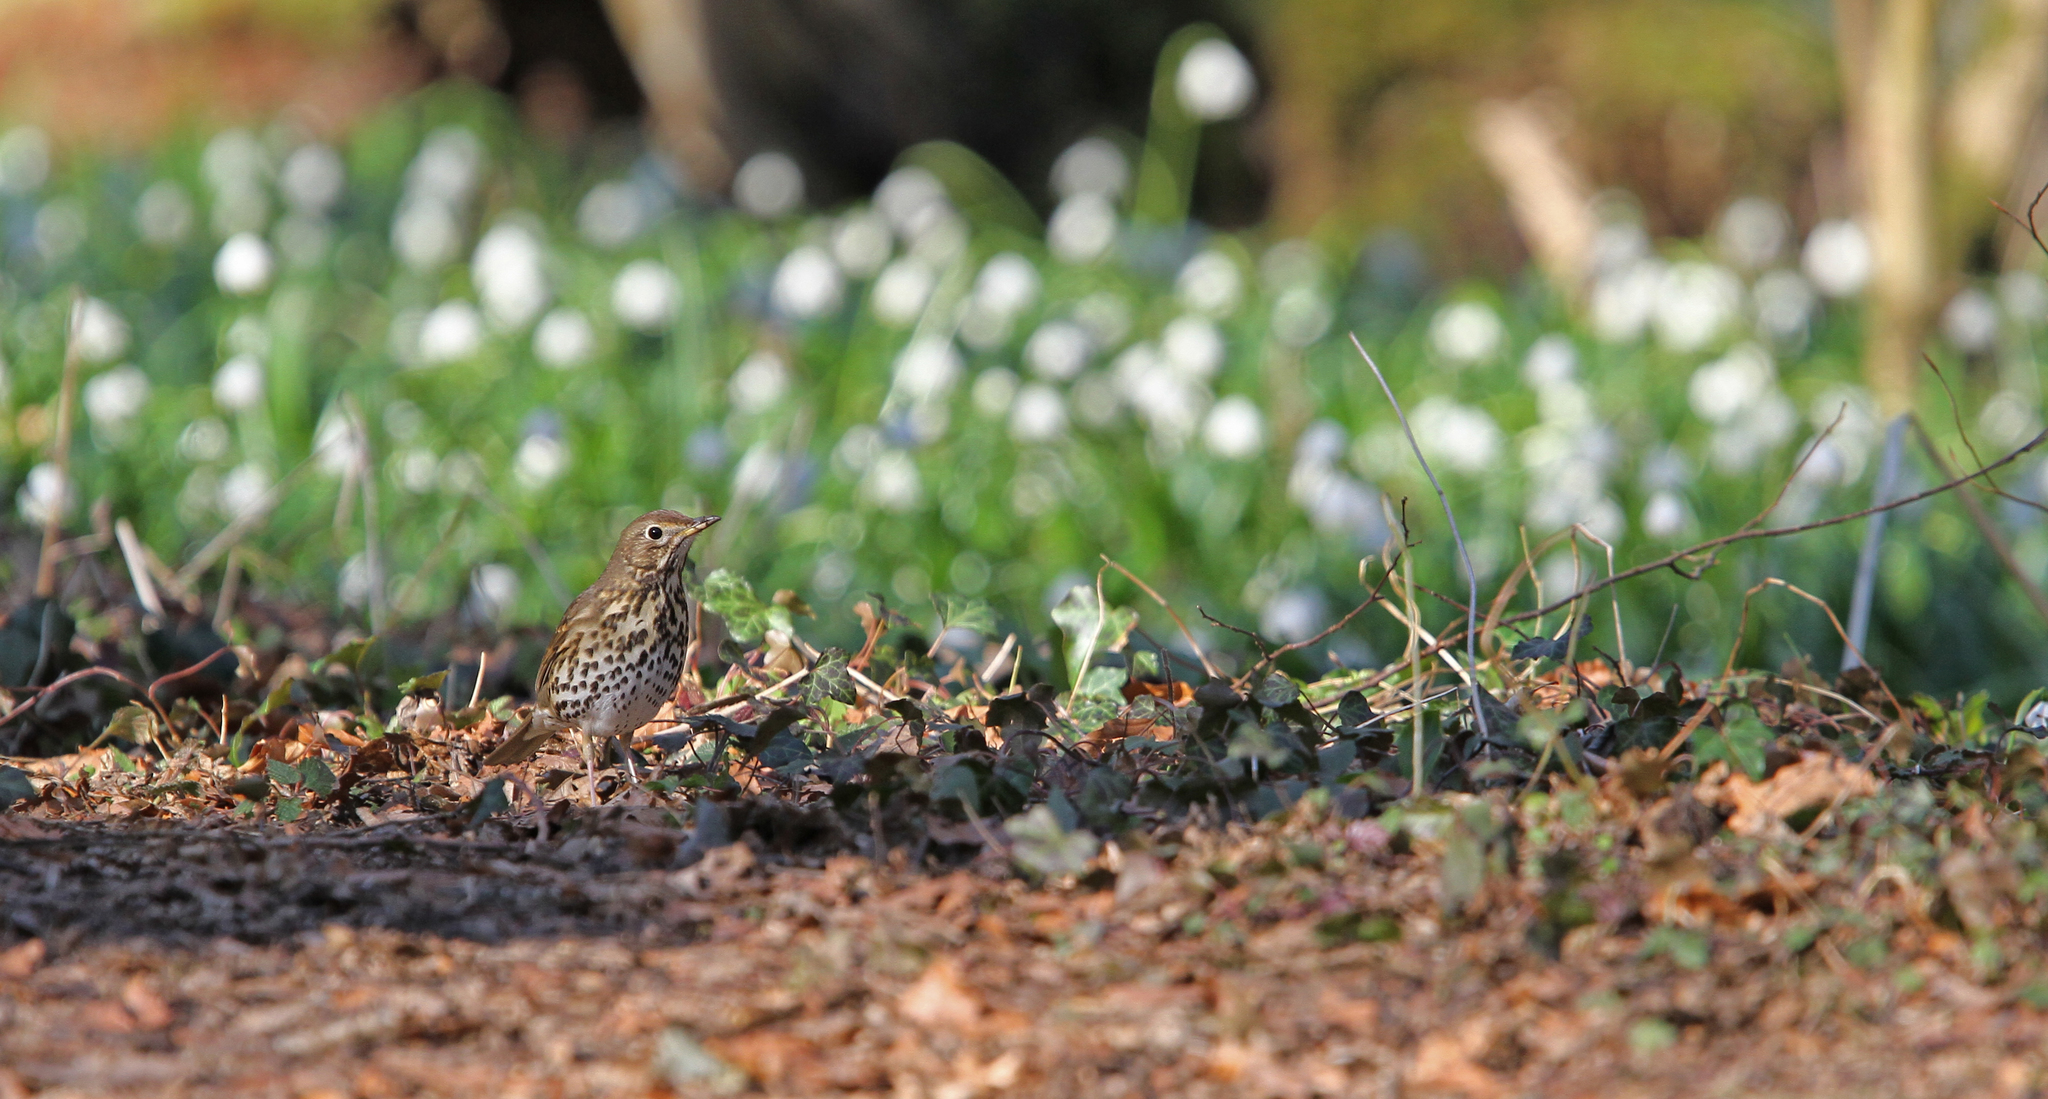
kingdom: Animalia
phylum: Chordata
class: Aves
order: Passeriformes
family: Turdidae
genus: Turdus
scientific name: Turdus philomelos
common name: Song thrush
